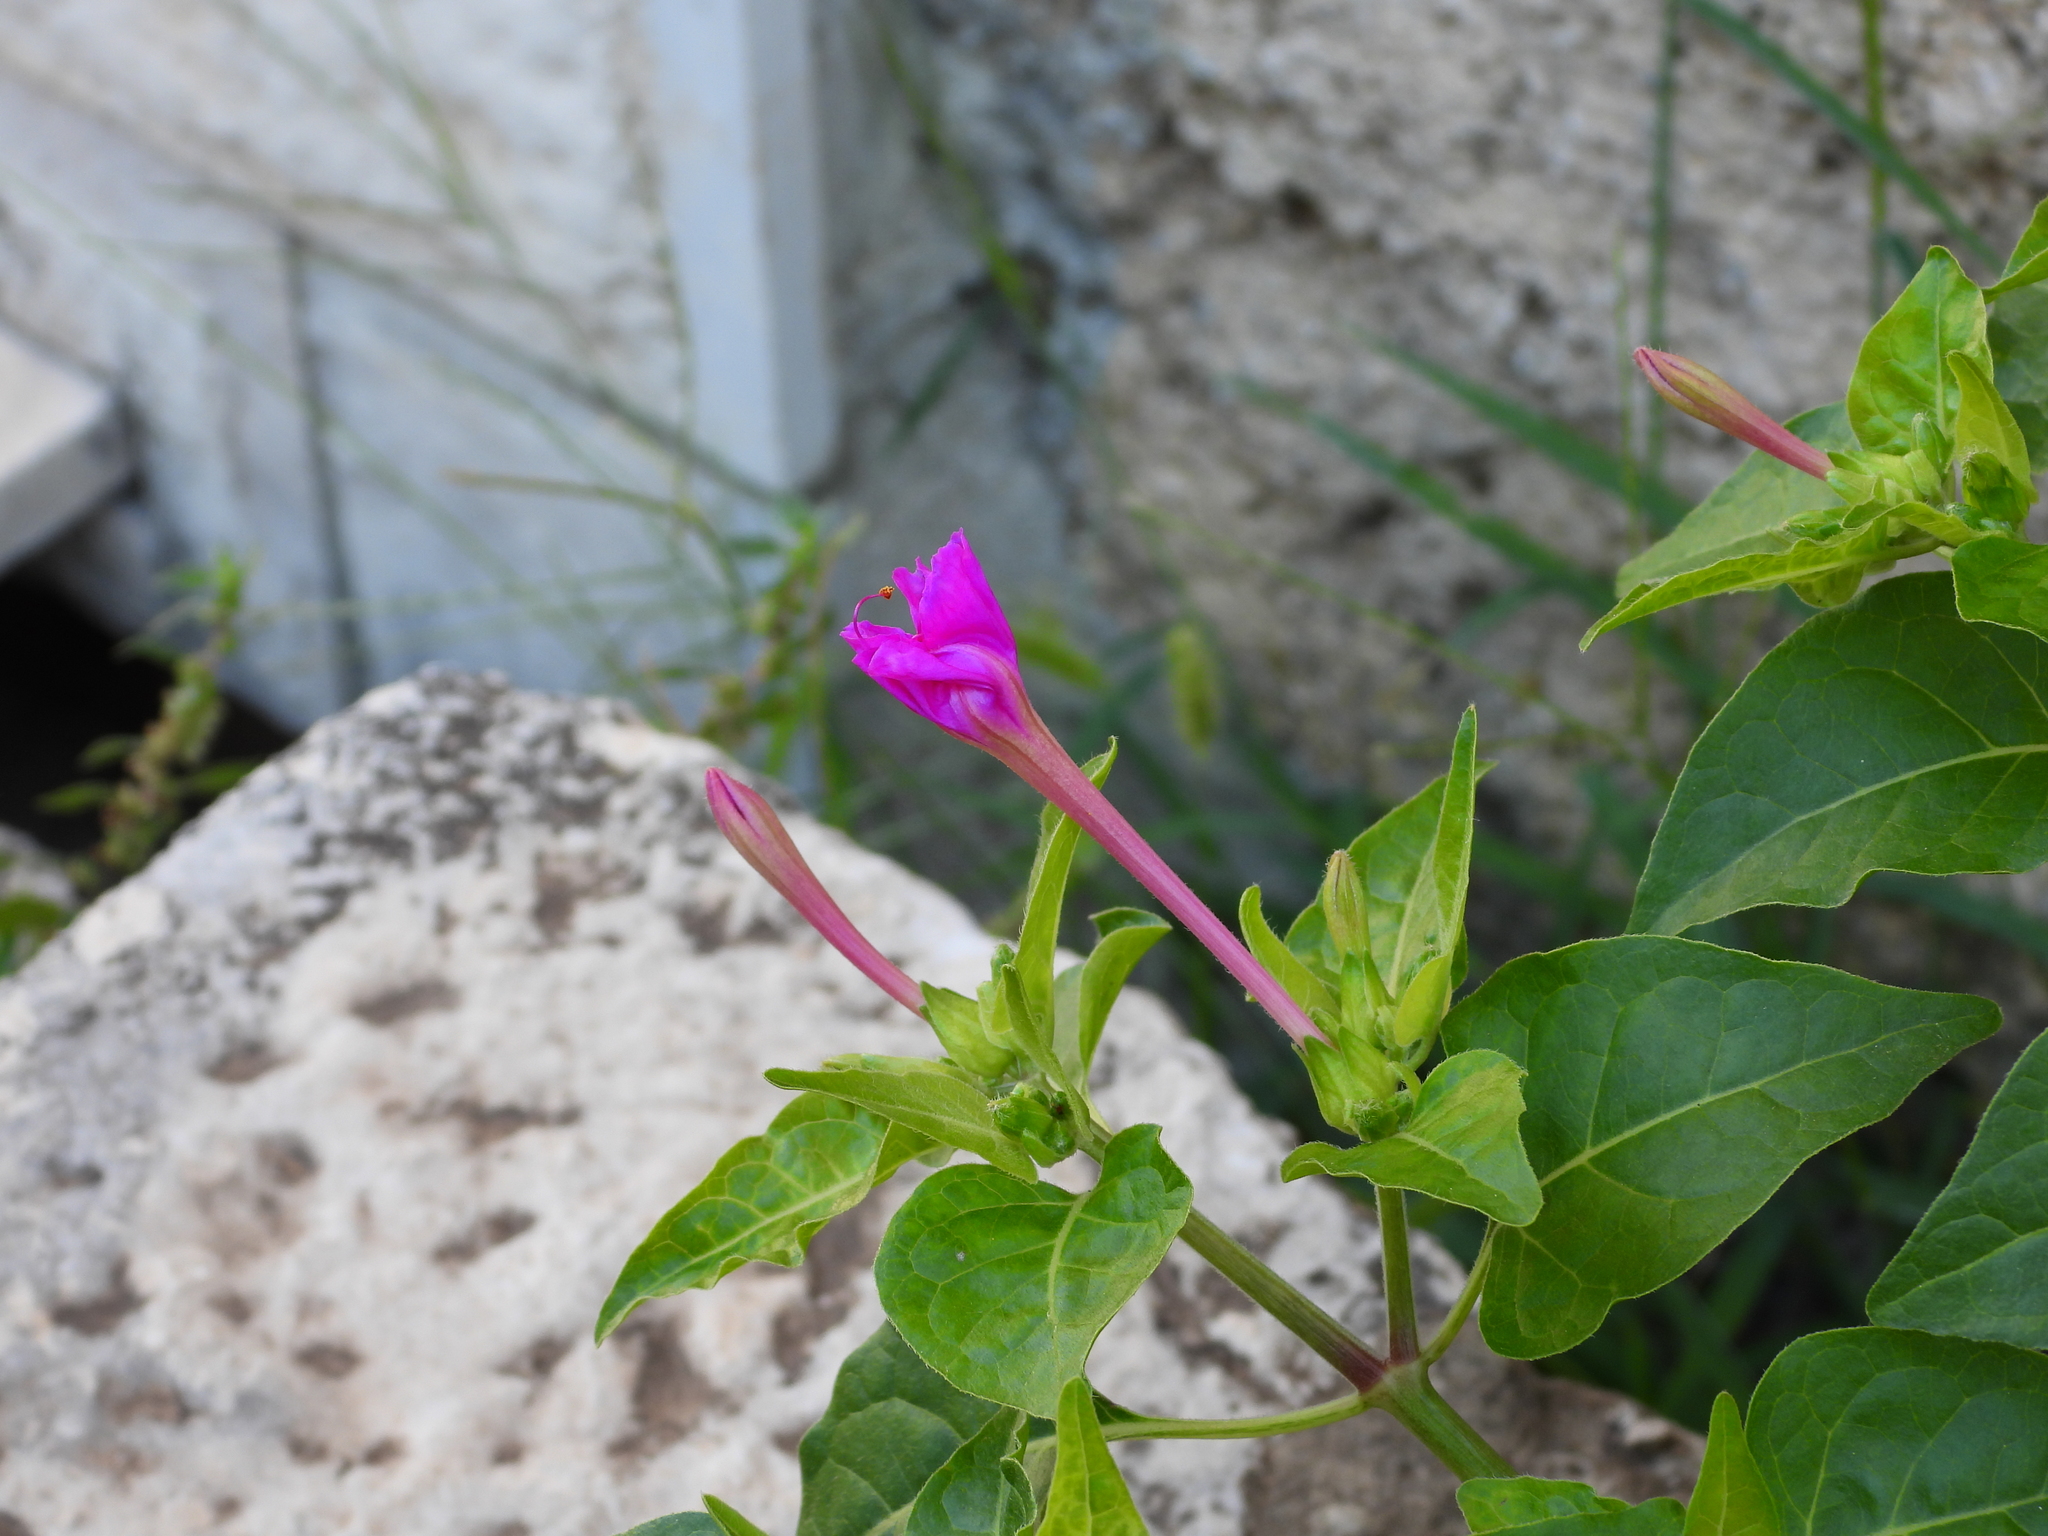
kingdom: Plantae
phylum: Tracheophyta
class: Magnoliopsida
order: Caryophyllales
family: Nyctaginaceae
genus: Mirabilis
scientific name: Mirabilis jalapa
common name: Marvel-of-peru
